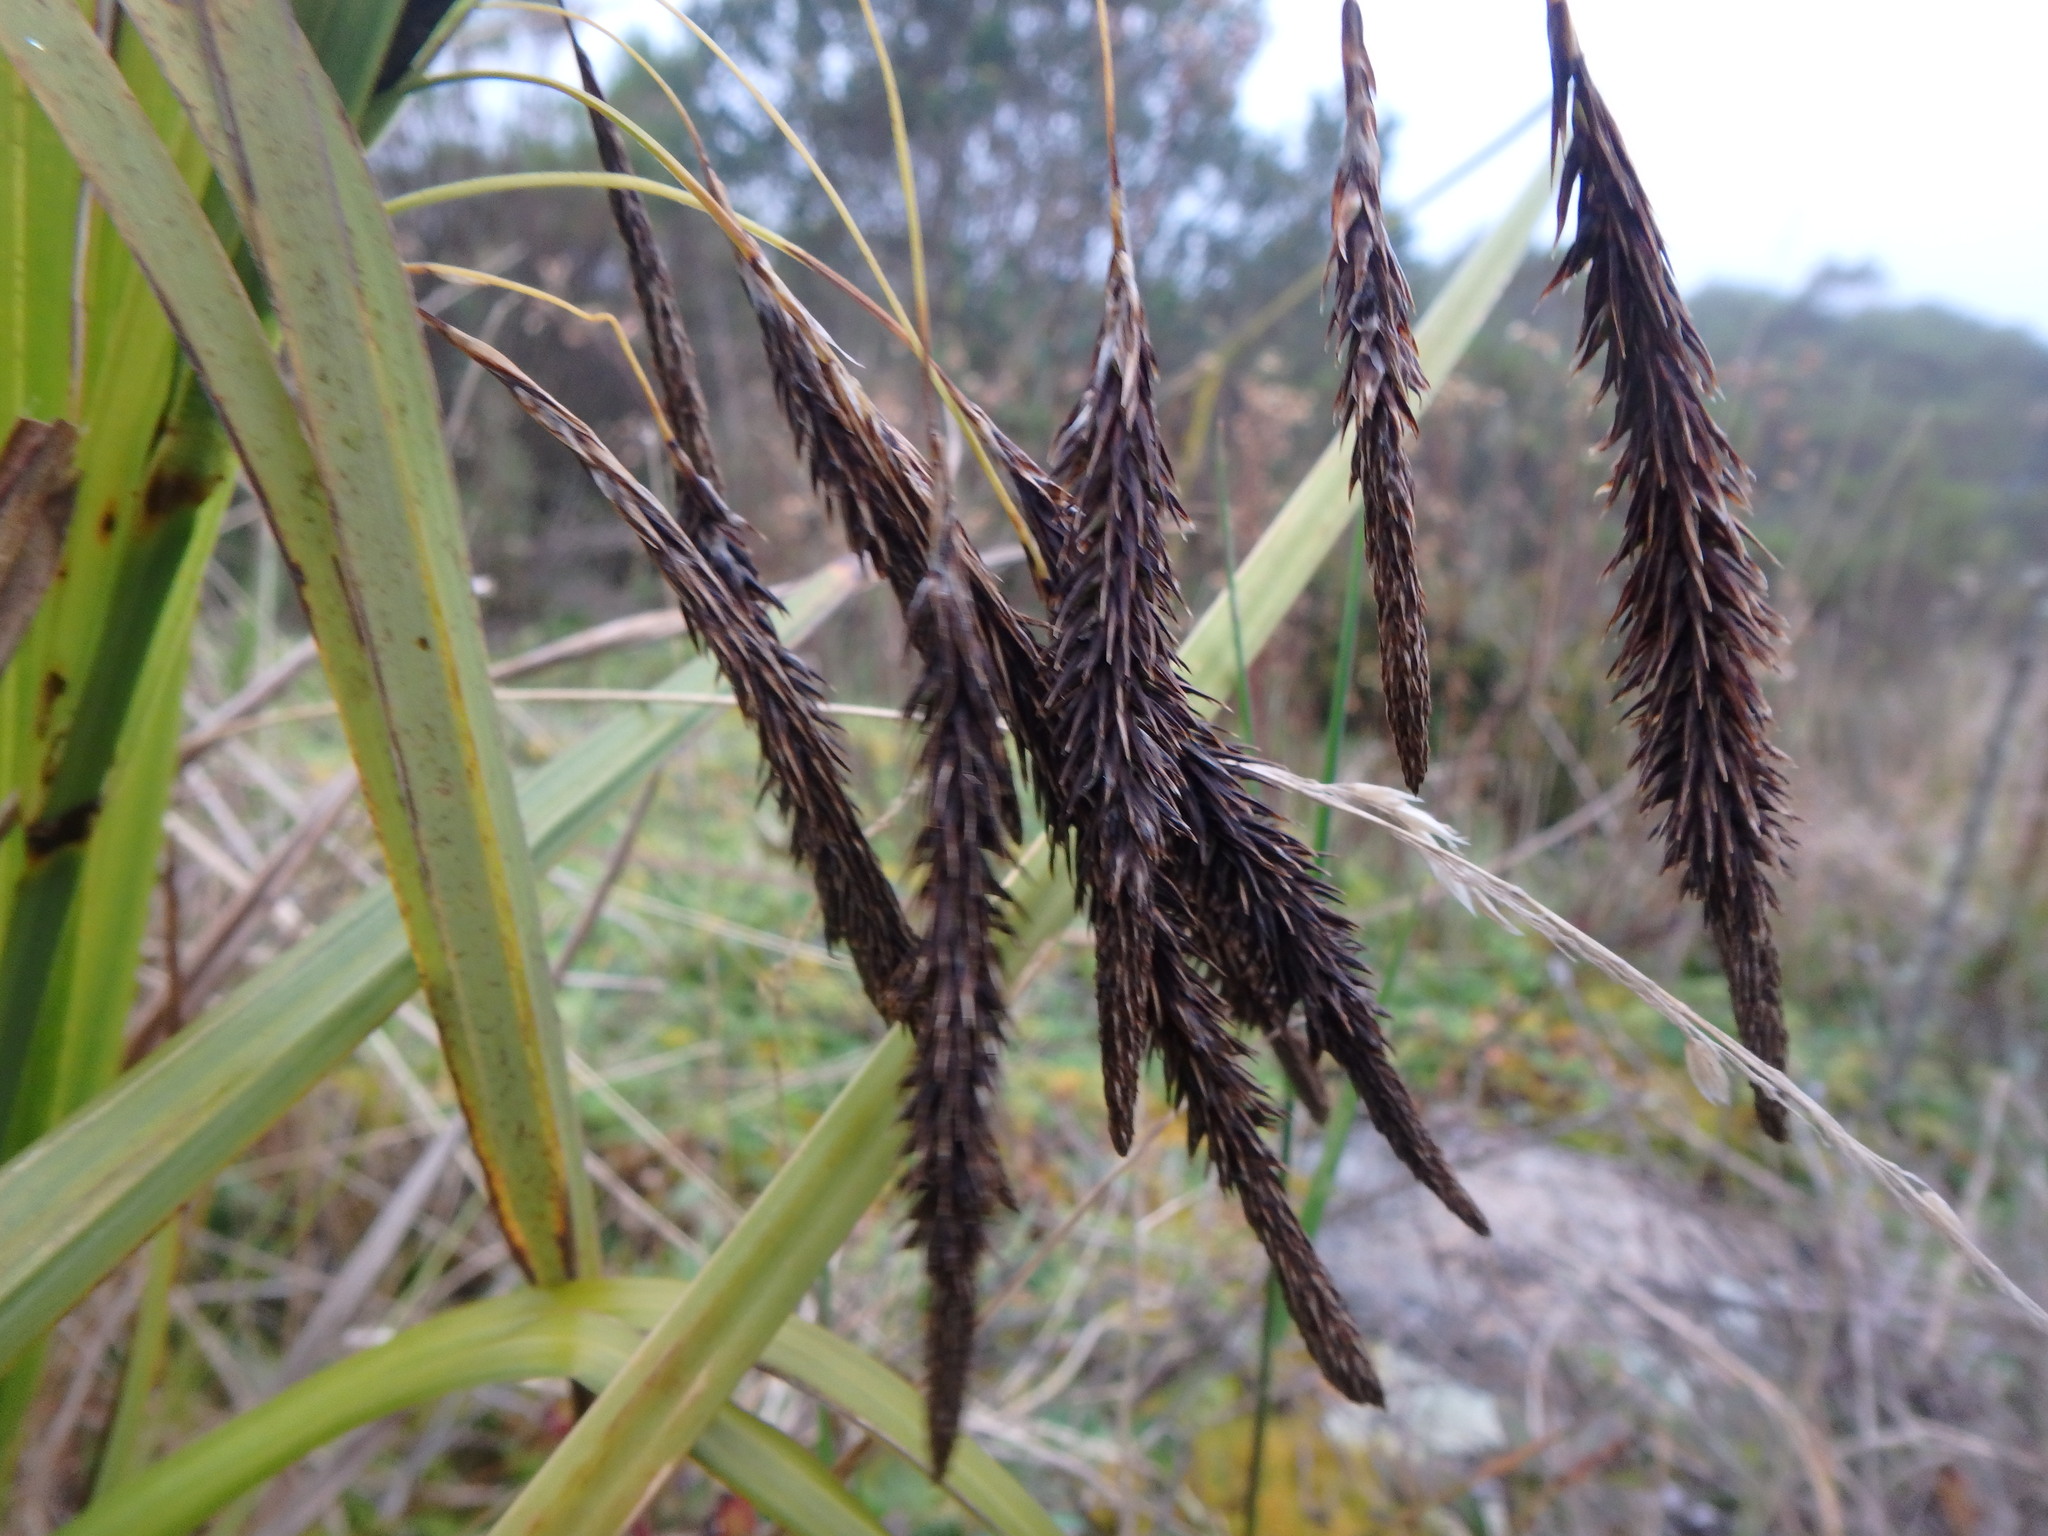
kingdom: Plantae
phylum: Tracheophyta
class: Liliopsida
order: Poales
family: Cyperaceae
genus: Carex
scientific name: Carex pichinchensis
